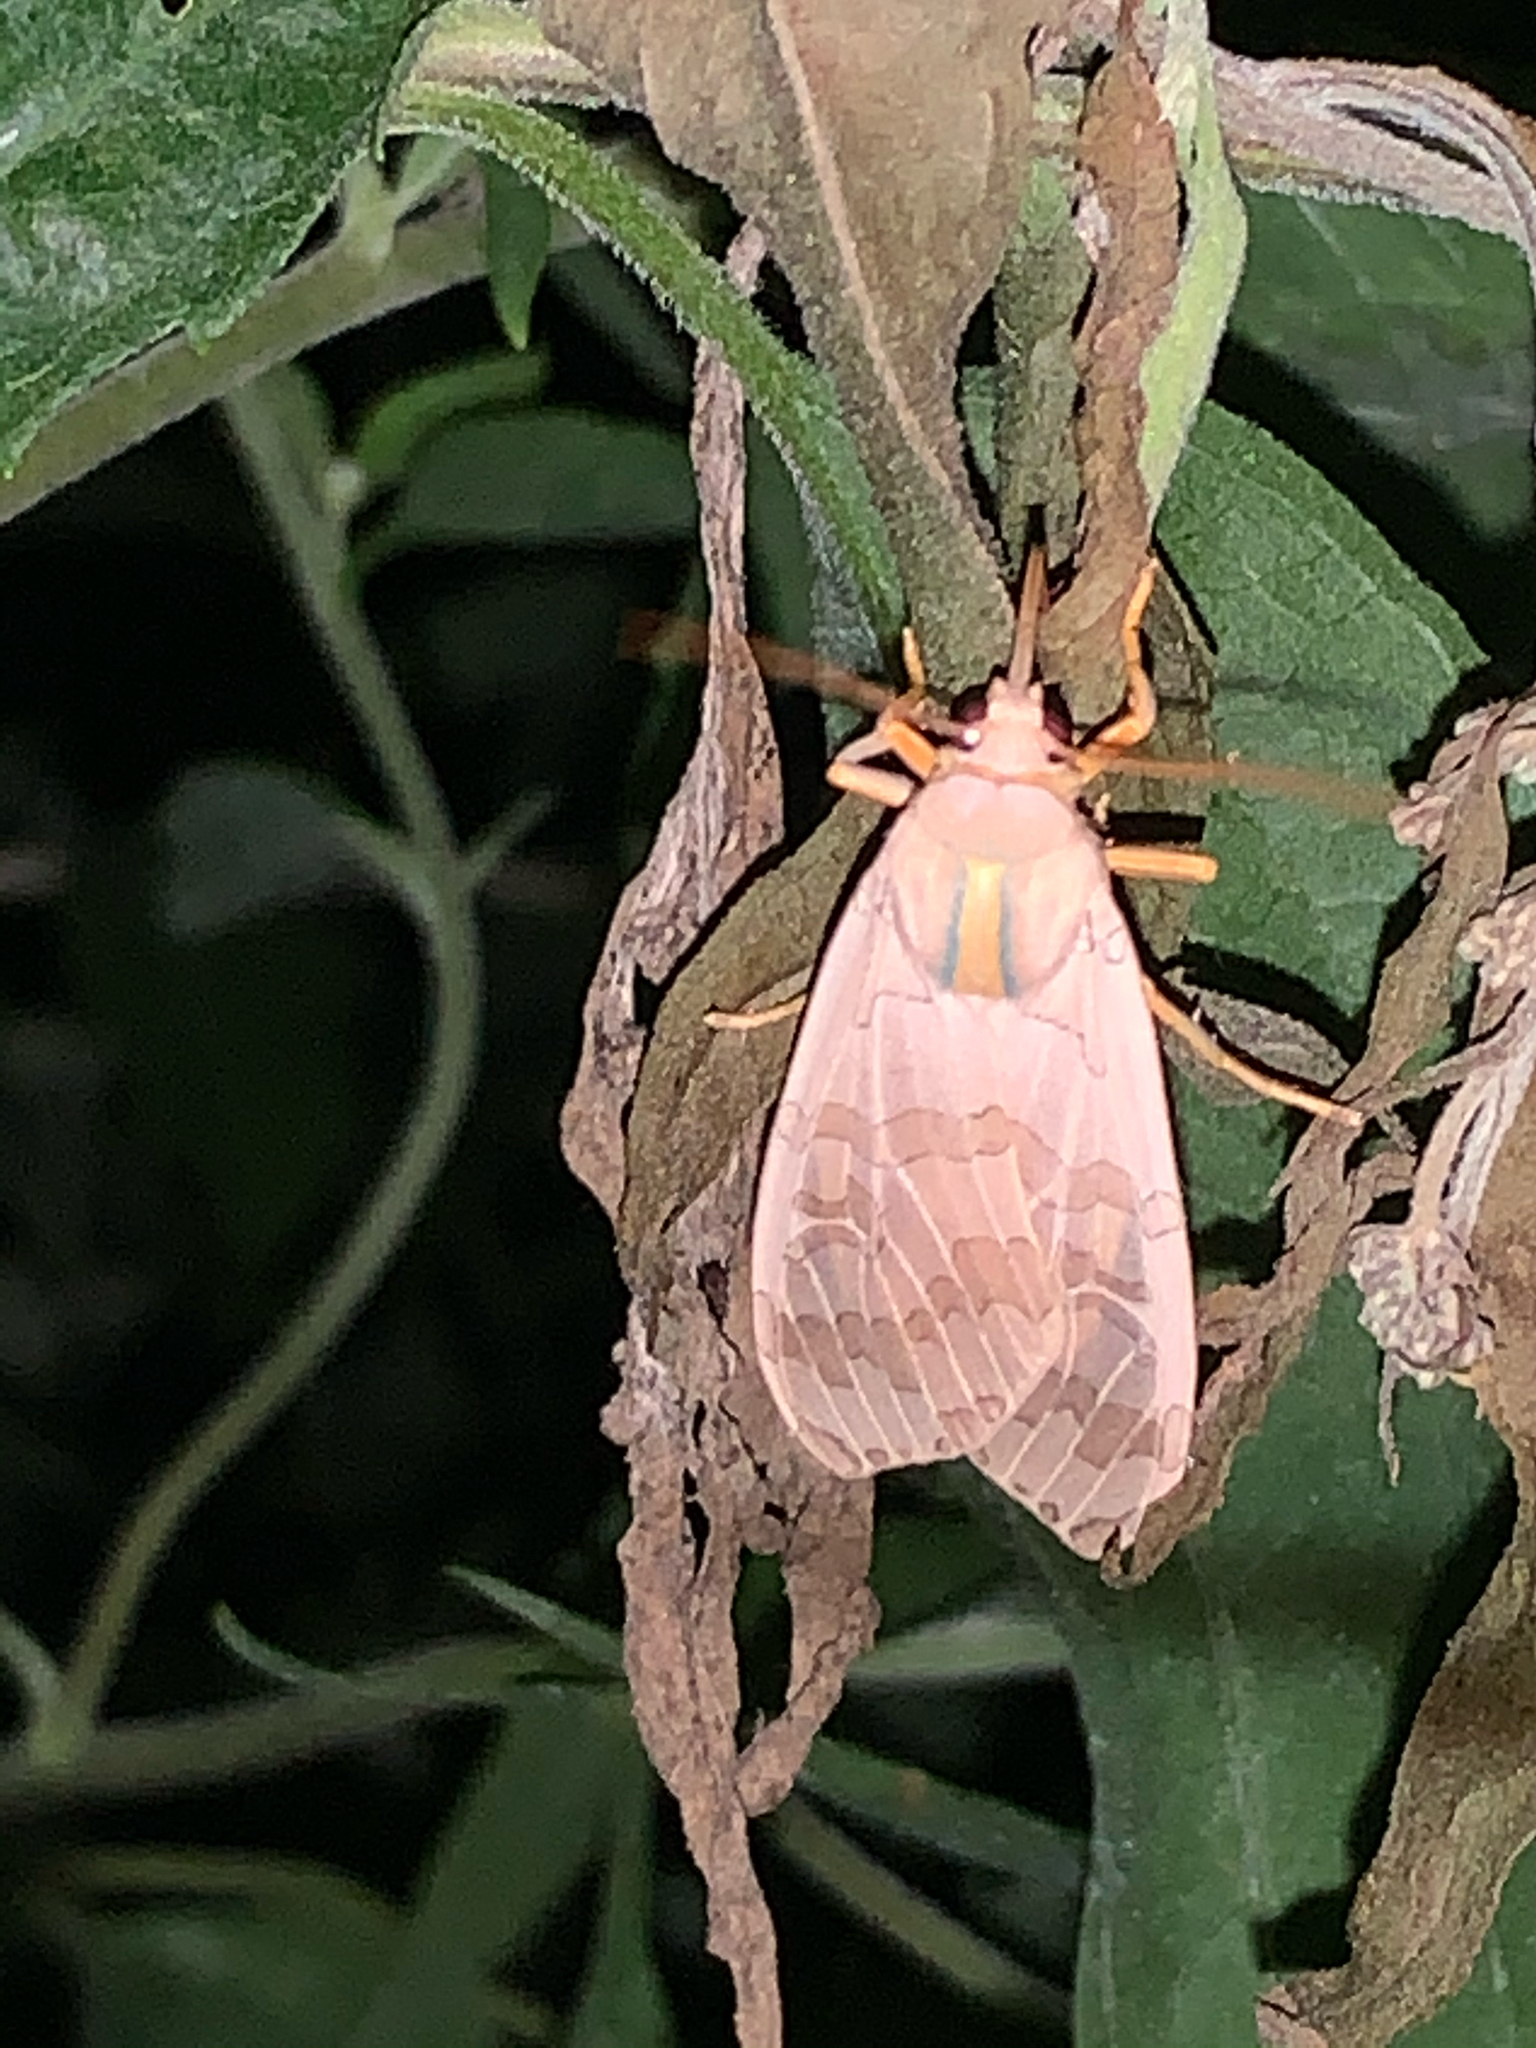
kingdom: Animalia
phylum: Arthropoda
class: Insecta
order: Lepidoptera
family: Erebidae
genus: Halysidota
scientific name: Halysidota
